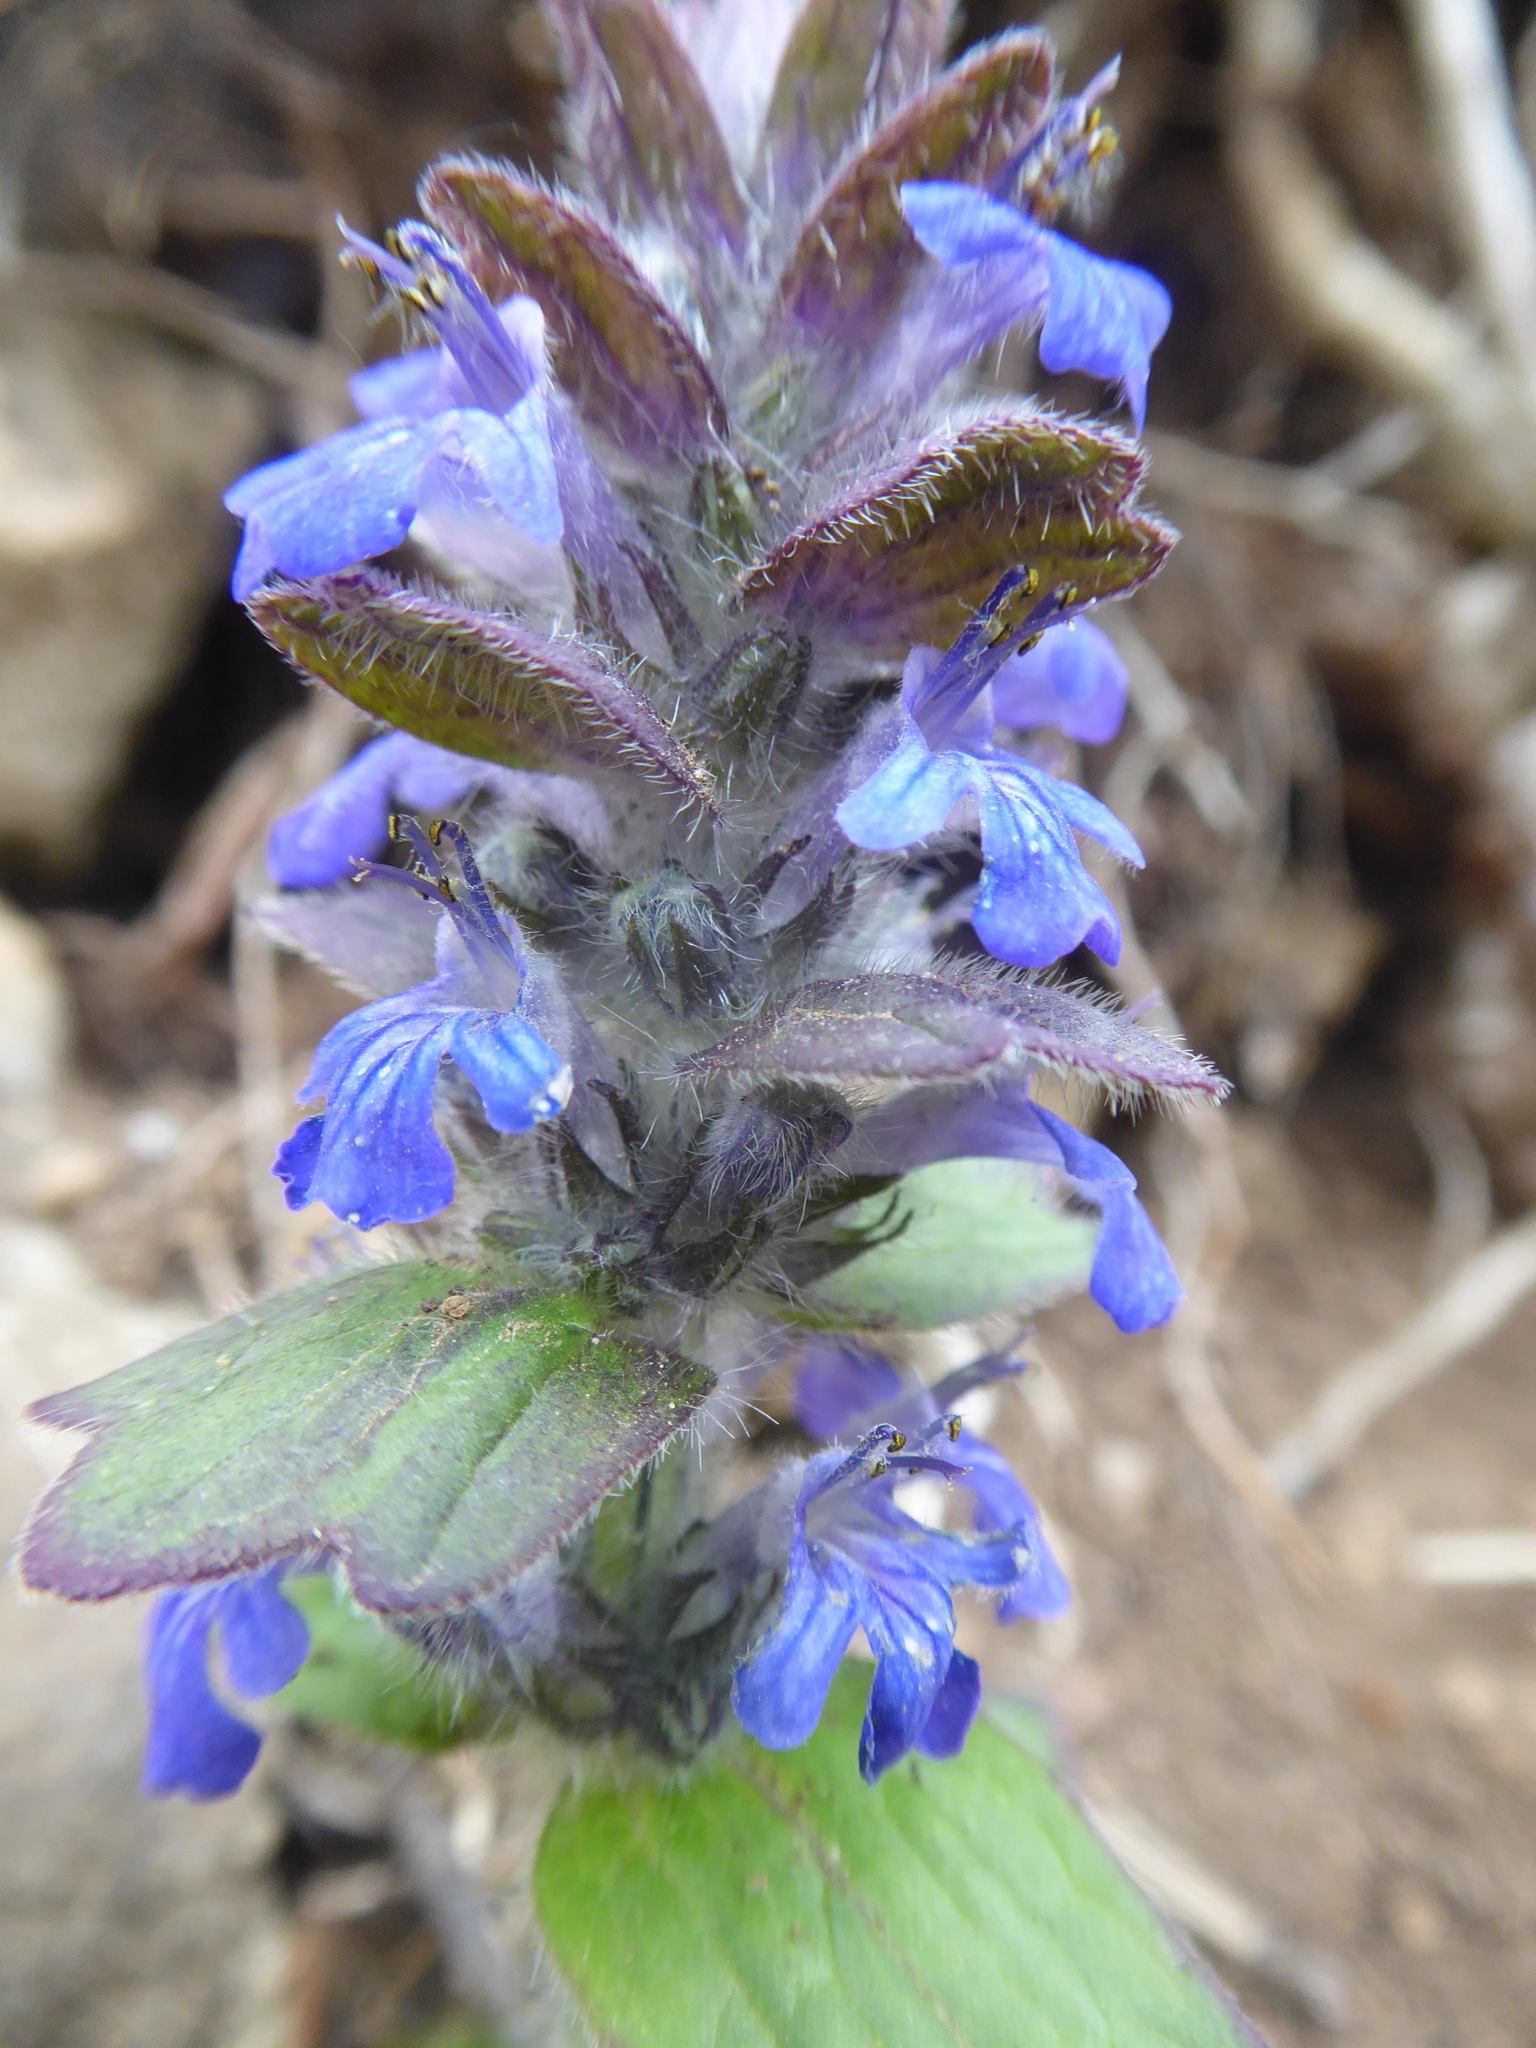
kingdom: Plantae
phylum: Tracheophyta
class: Magnoliopsida
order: Lamiales
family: Lamiaceae
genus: Ajuga
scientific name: Ajuga genevensis
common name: Blue bugle
